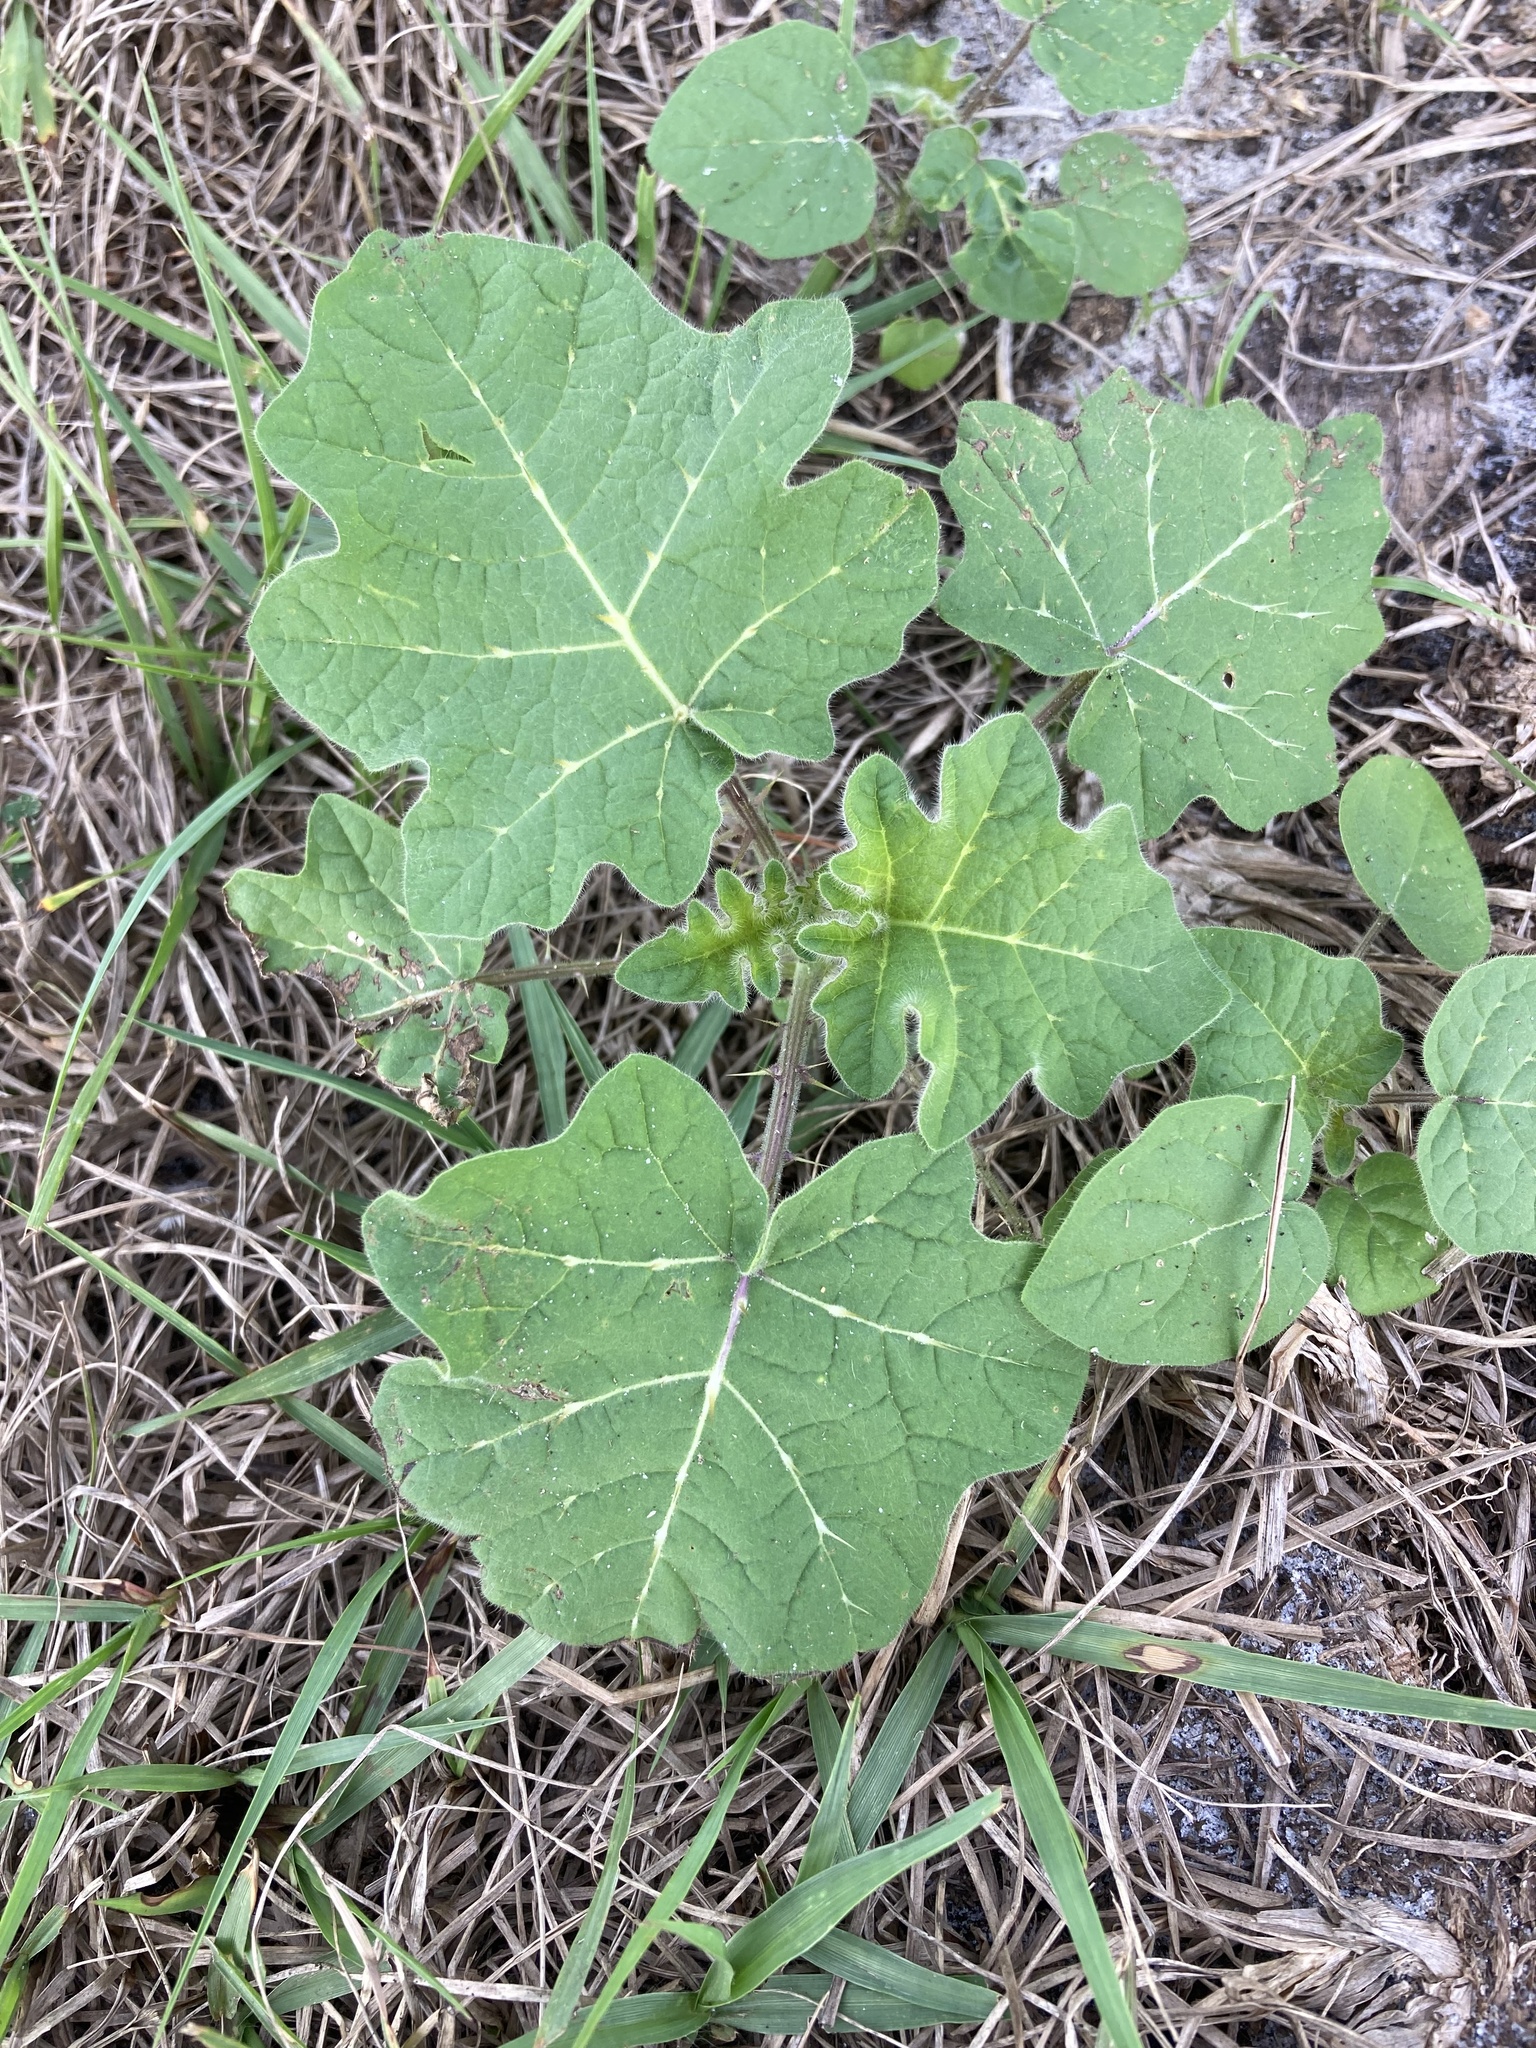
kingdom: Plantae
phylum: Tracheophyta
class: Magnoliopsida
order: Solanales
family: Solanaceae
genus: Solanum
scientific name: Solanum viarum
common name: Tropical soda apple
